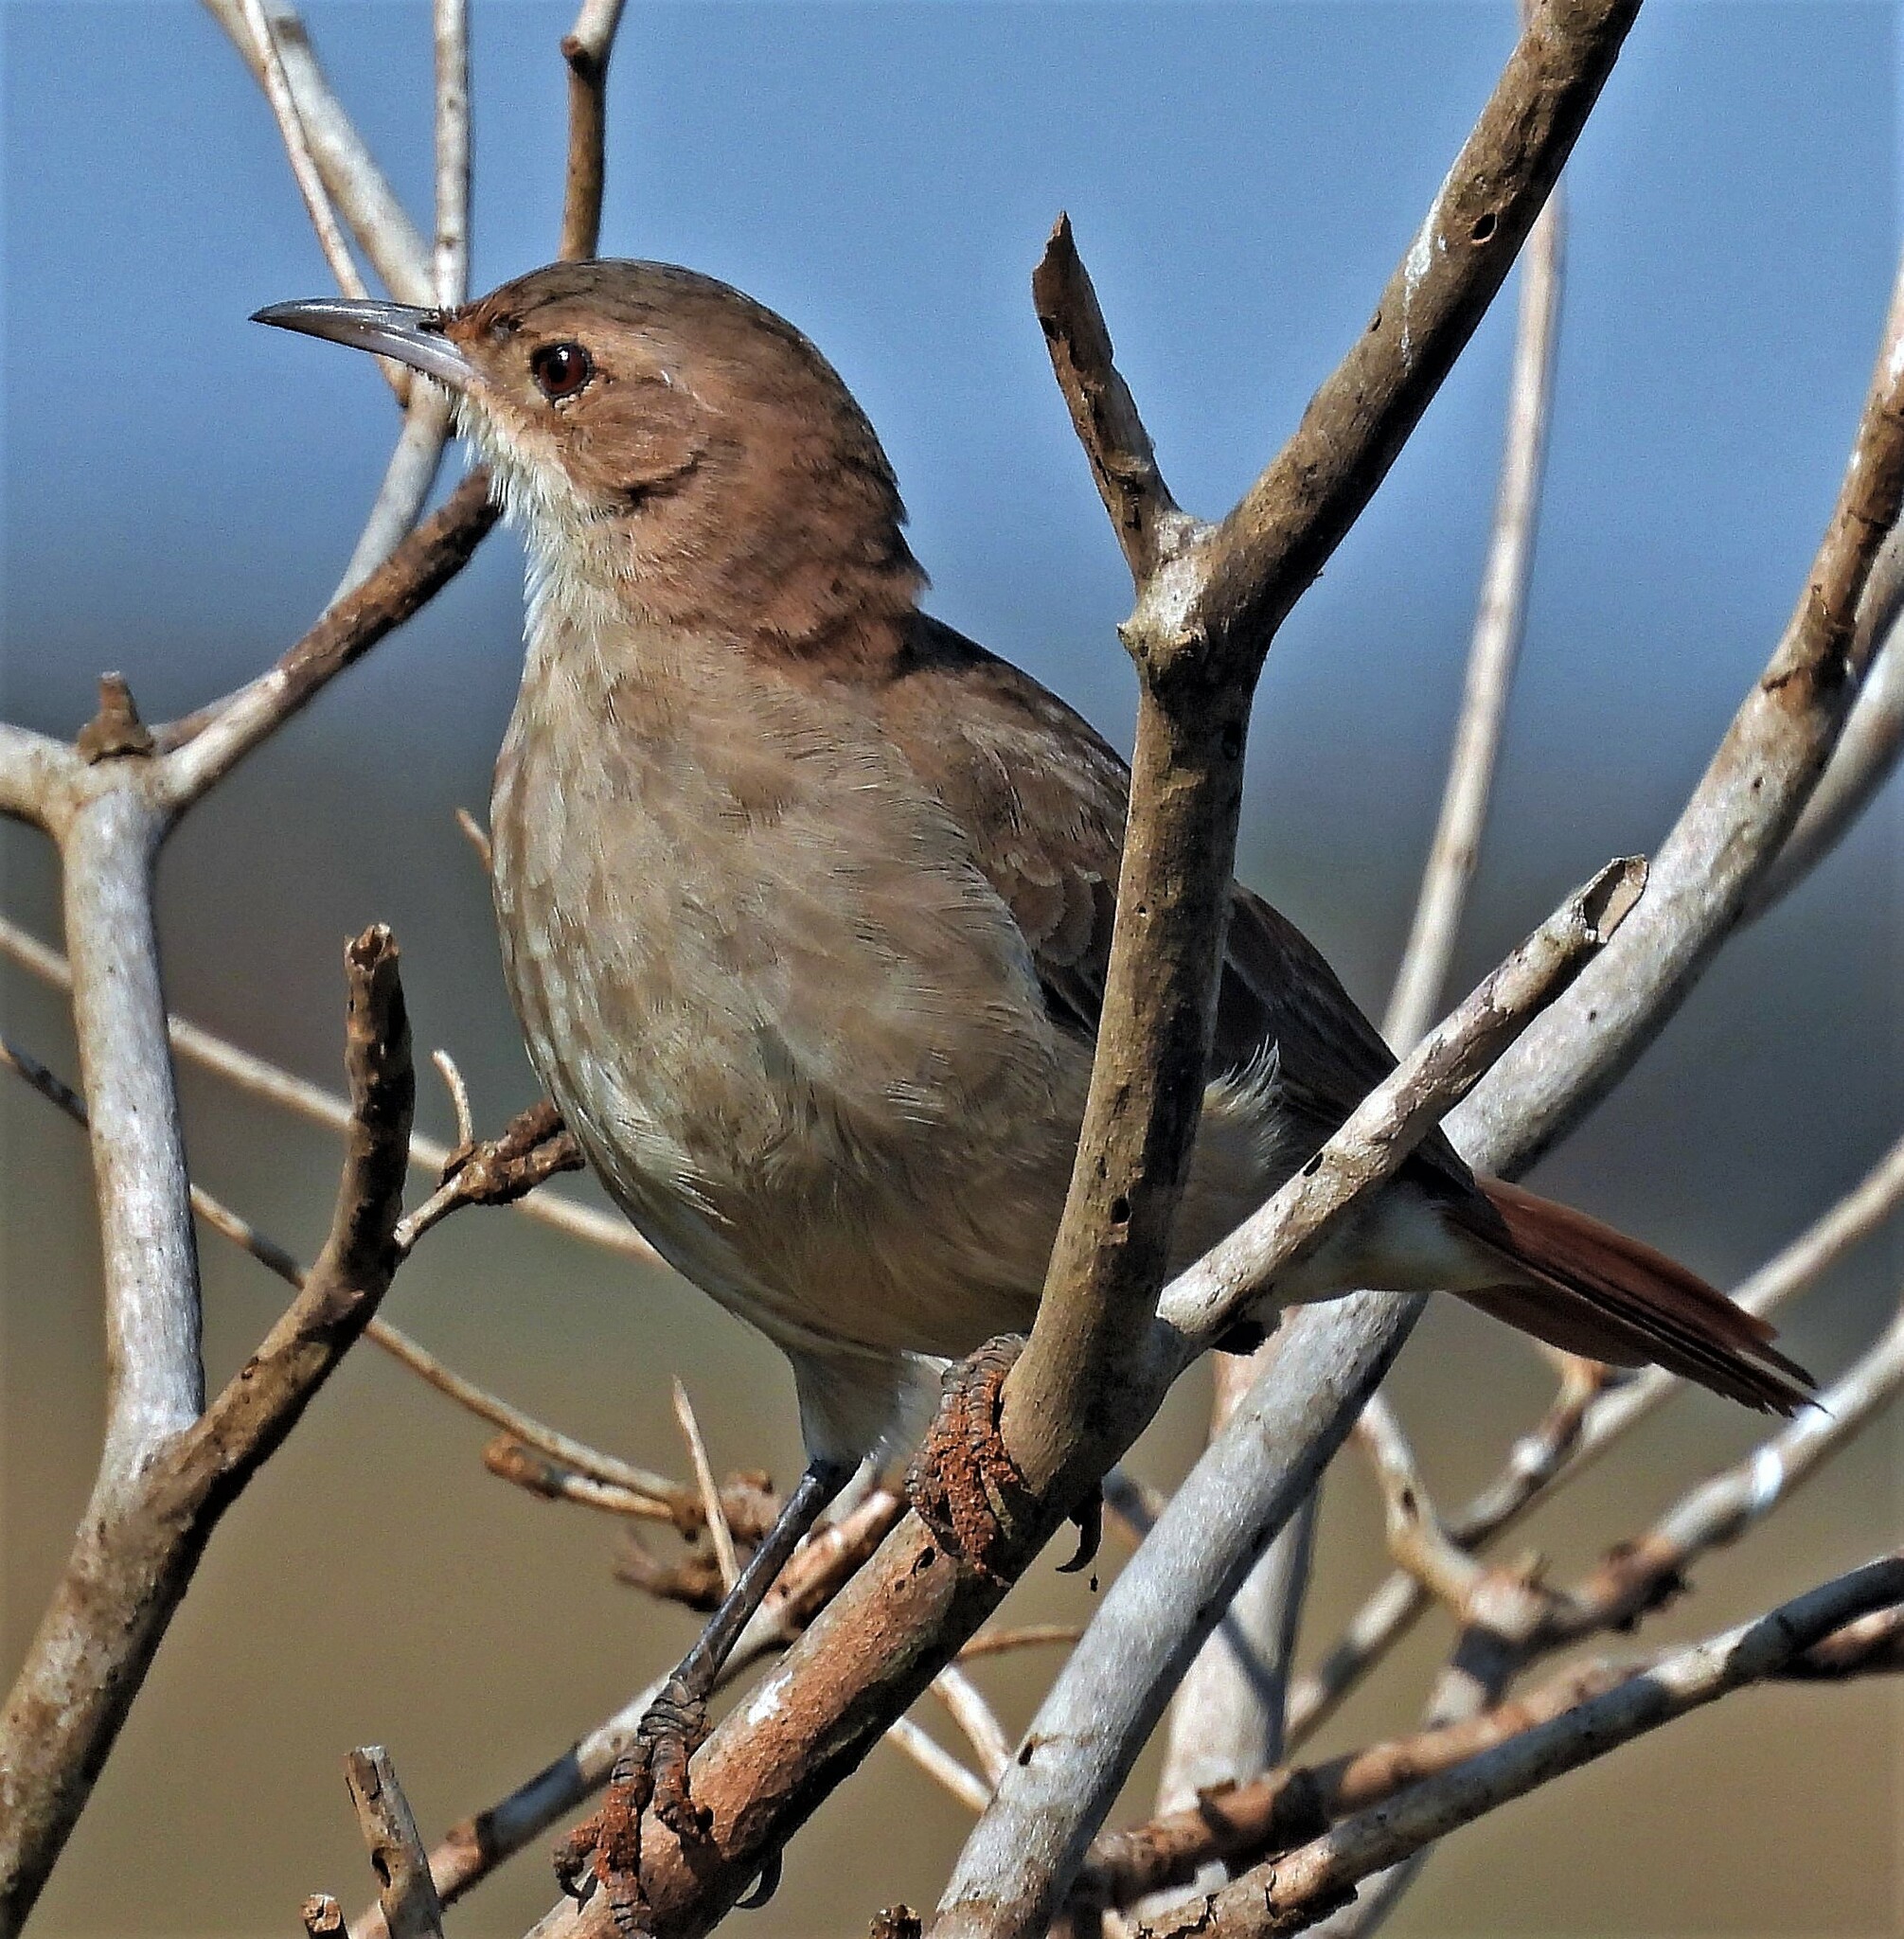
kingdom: Animalia
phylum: Chordata
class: Aves
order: Passeriformes
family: Furnariidae
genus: Furnarius
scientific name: Furnarius rufus
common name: Rufous hornero
